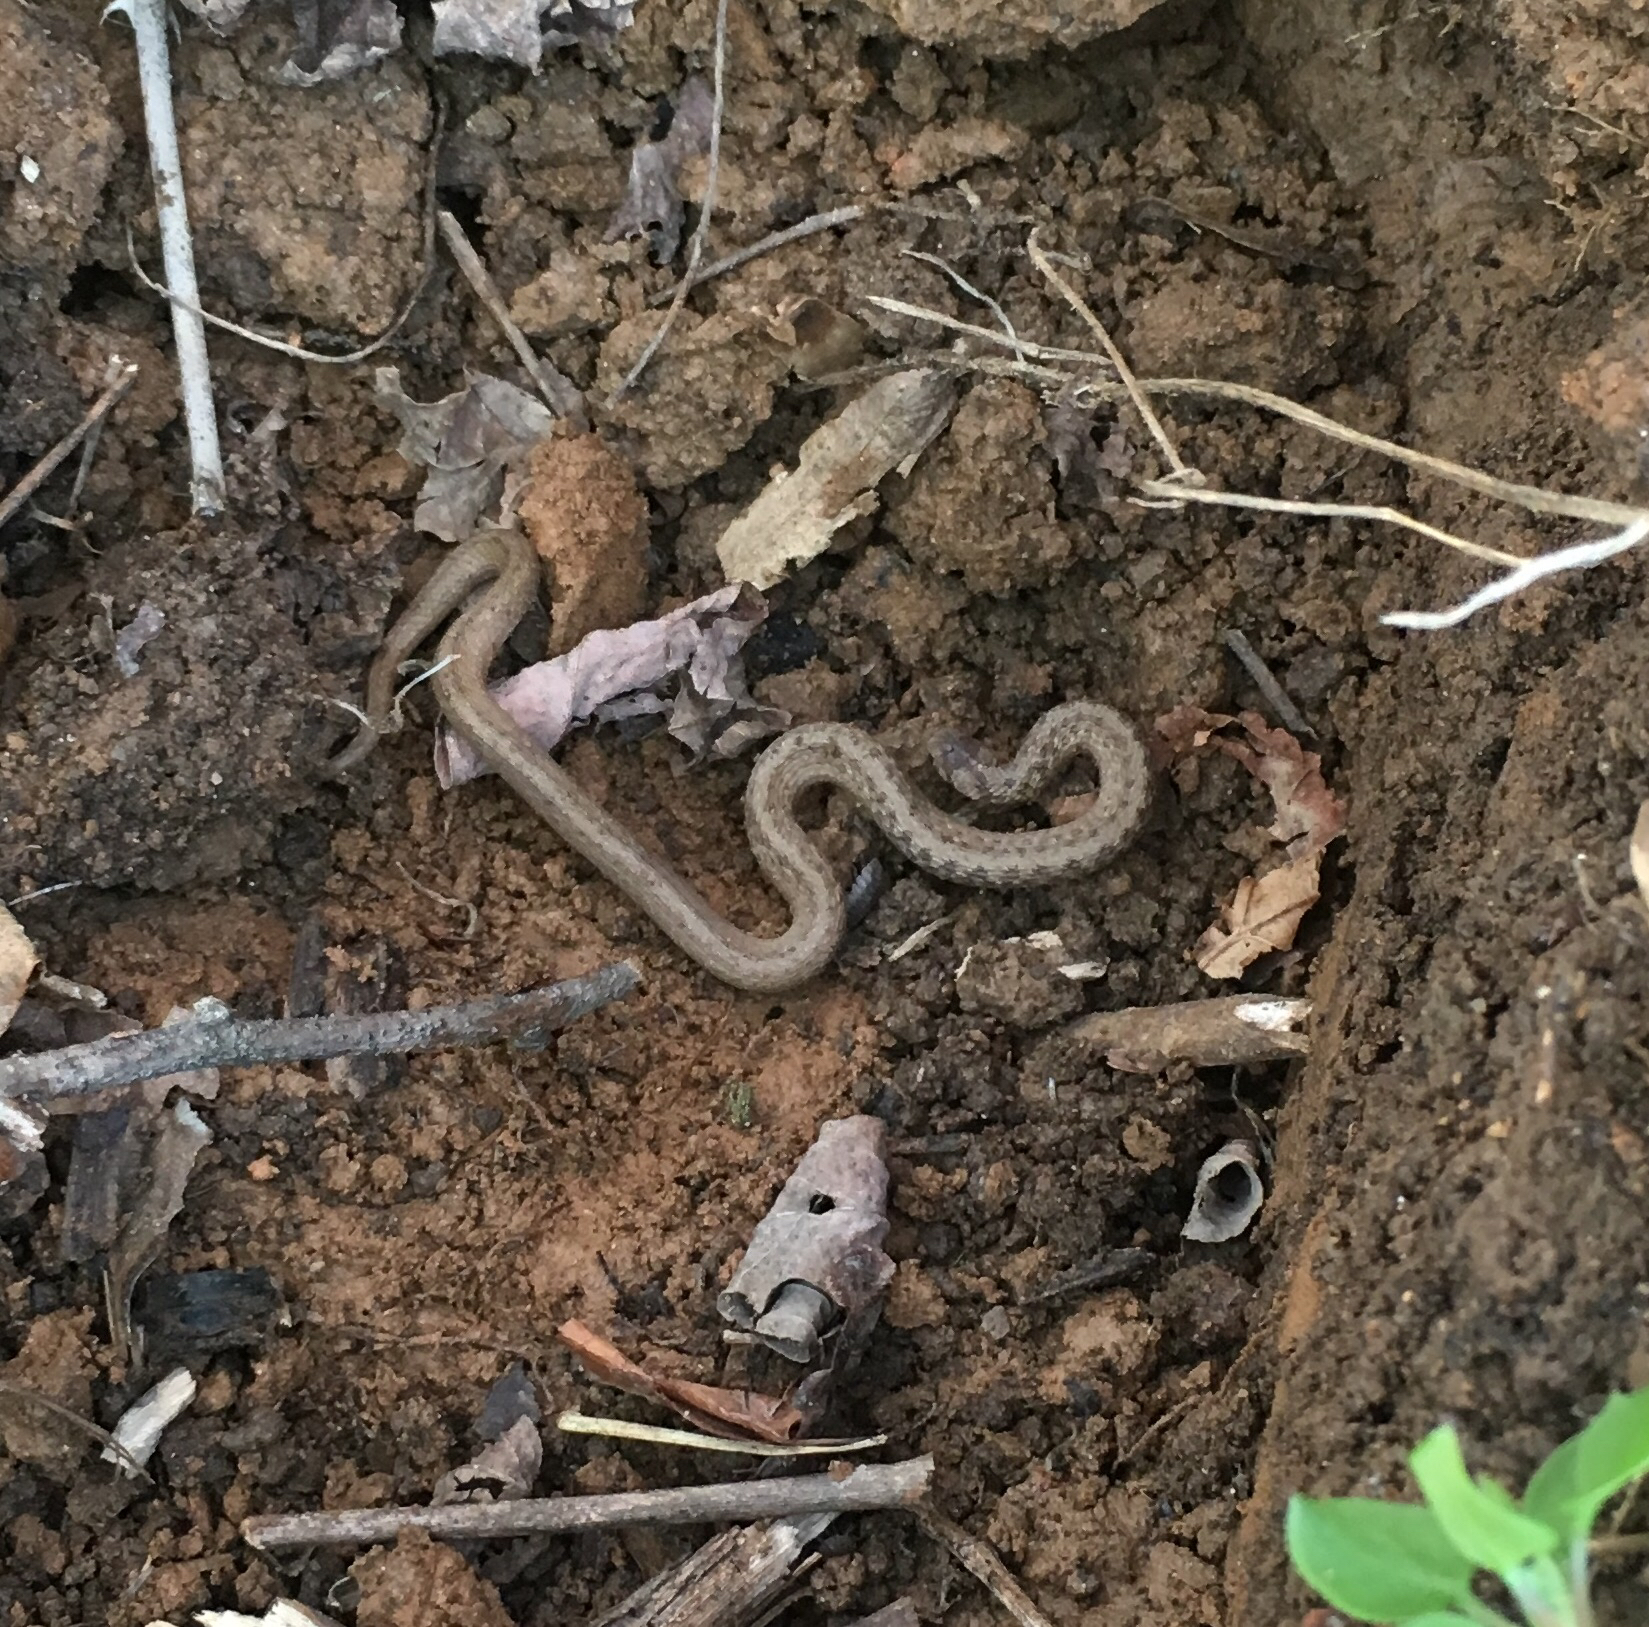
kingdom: Animalia
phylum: Chordata
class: Squamata
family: Colubridae
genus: Storeria
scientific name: Storeria dekayi
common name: (dekay’s) brown snake
